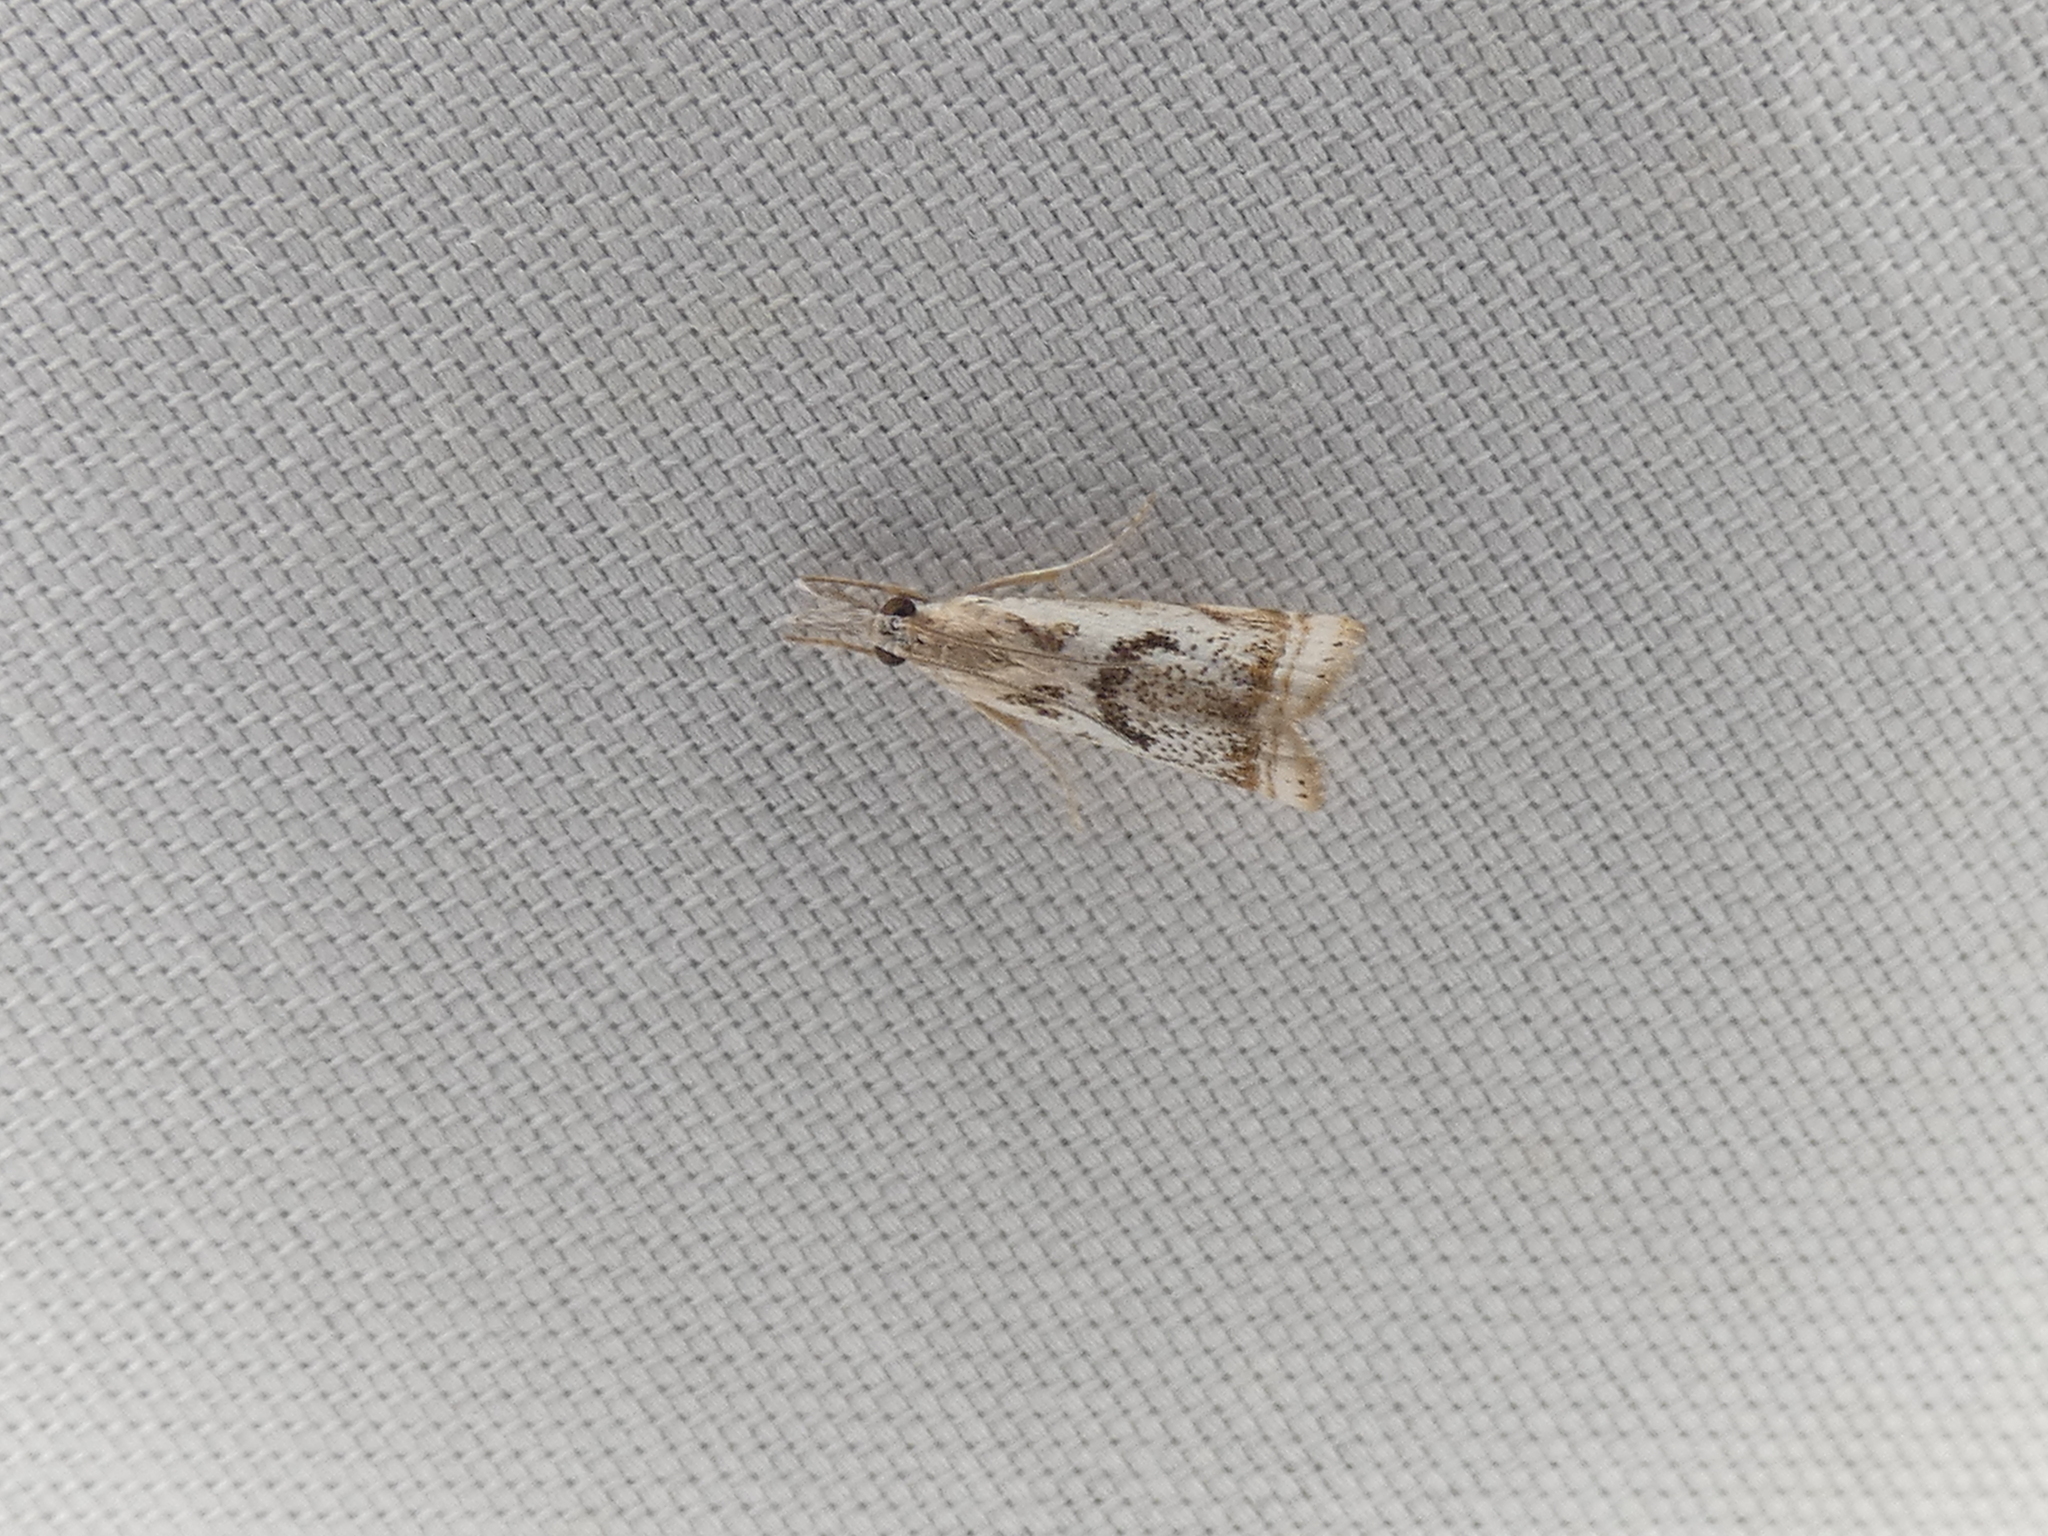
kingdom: Animalia
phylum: Arthropoda
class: Insecta
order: Lepidoptera
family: Crambidae
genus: Microcrambus
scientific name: Microcrambus elegans
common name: Elegant grass-veneer
